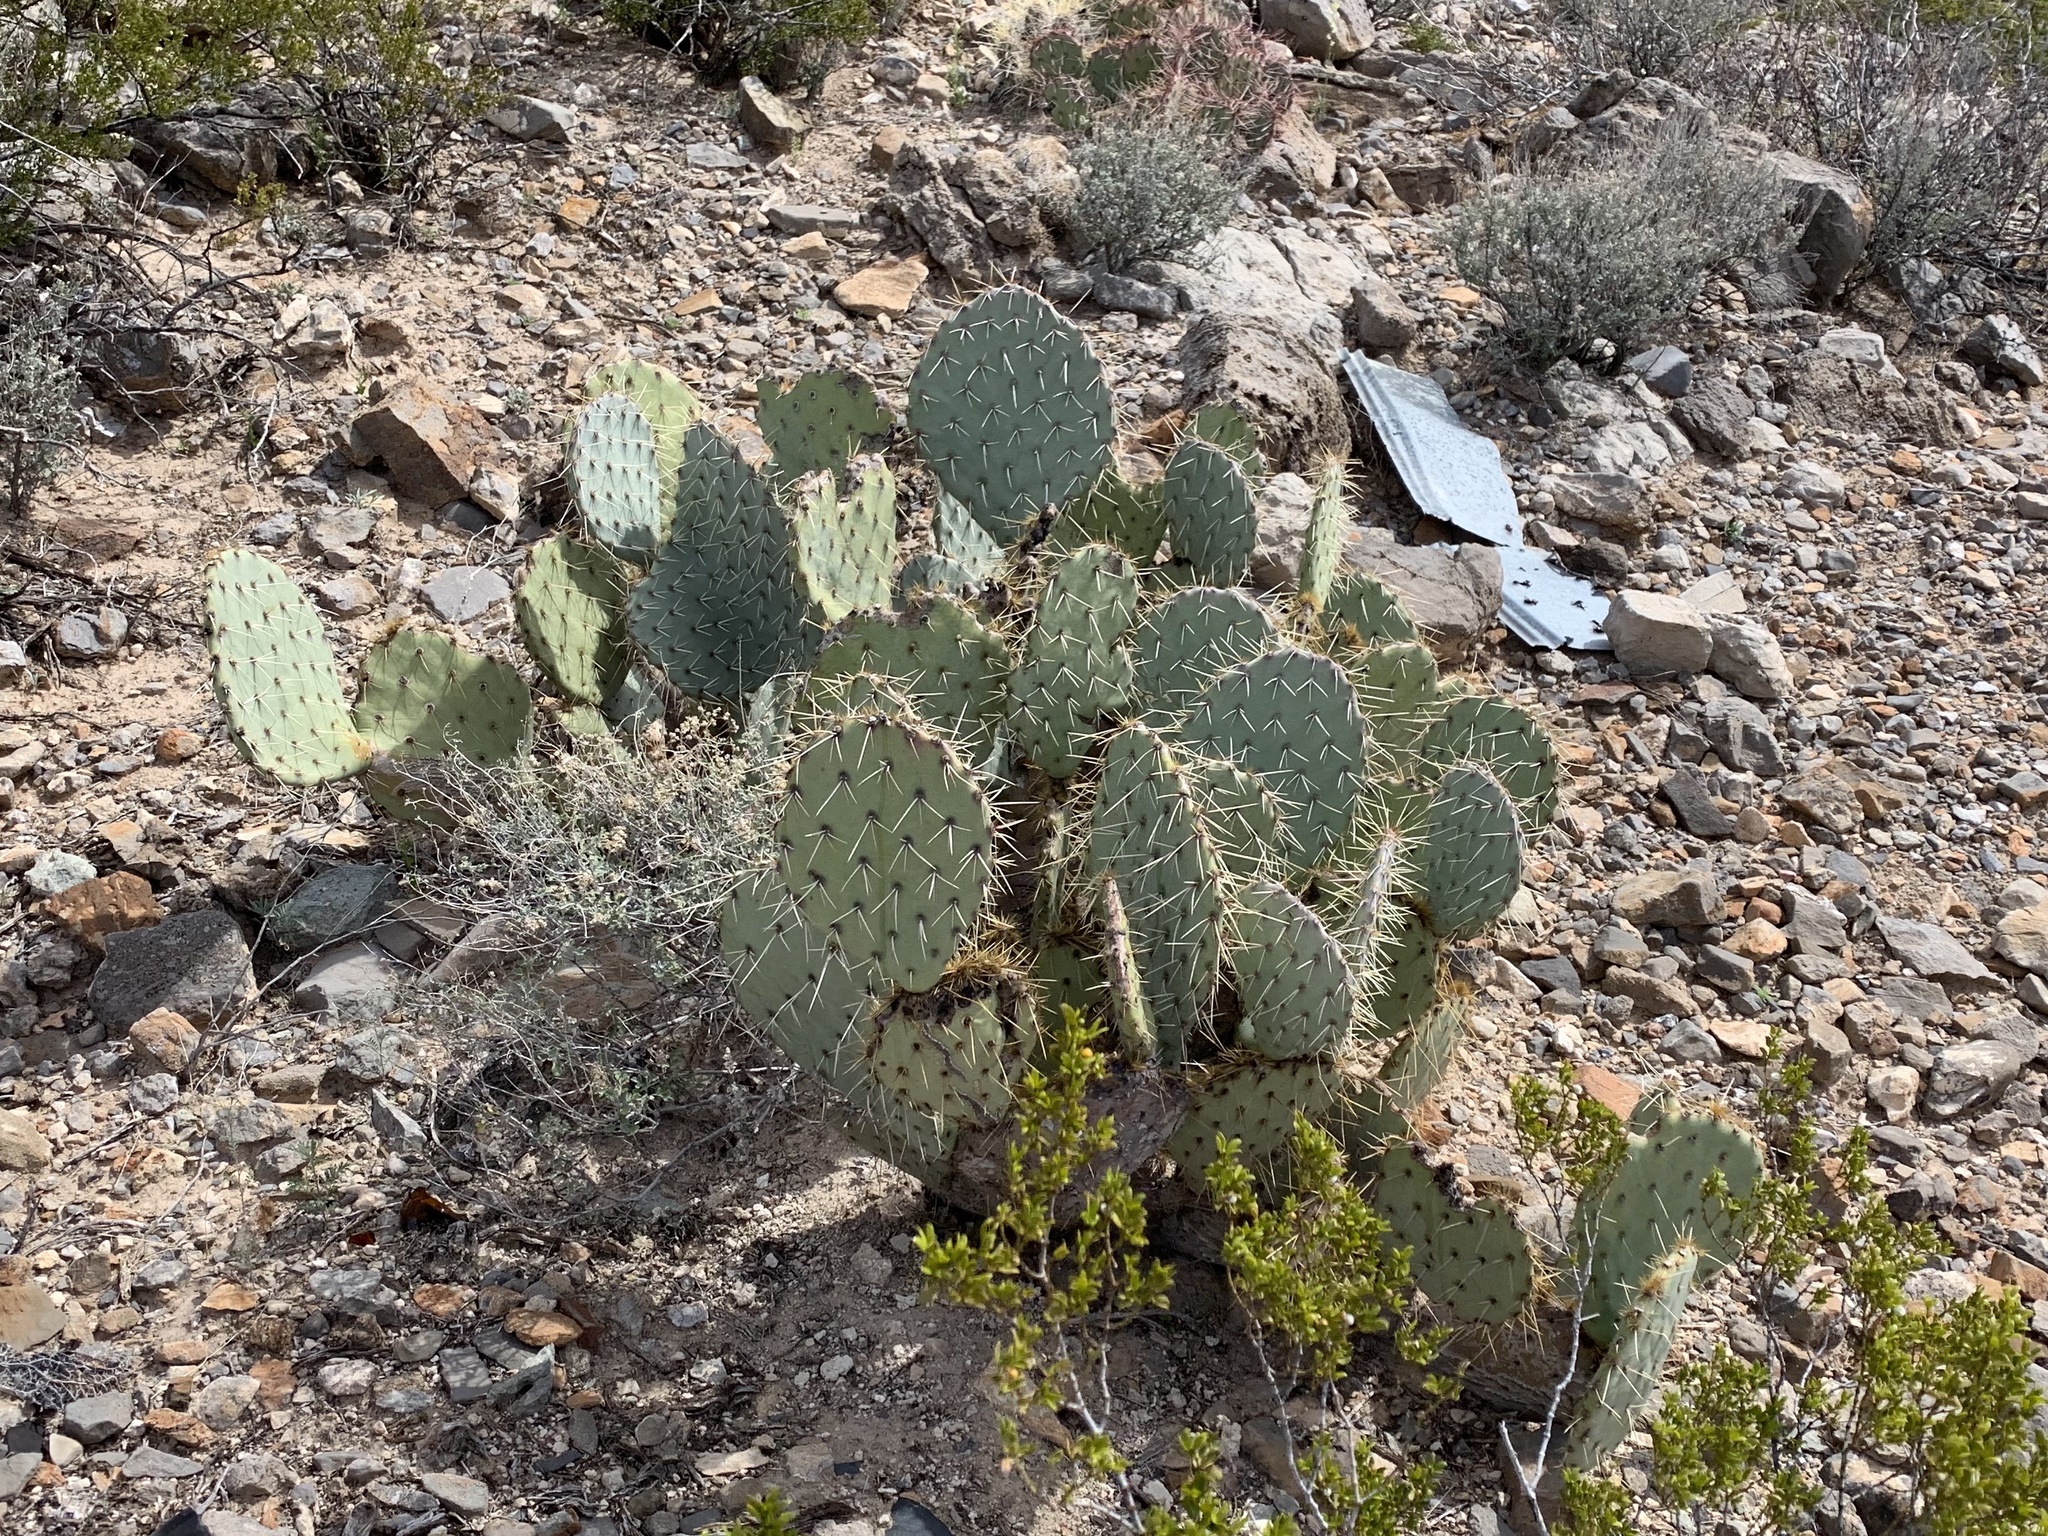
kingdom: Plantae
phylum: Tracheophyta
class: Magnoliopsida
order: Caryophyllales
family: Cactaceae
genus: Opuntia
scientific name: Opuntia engelmannii
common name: Cactus-apple
